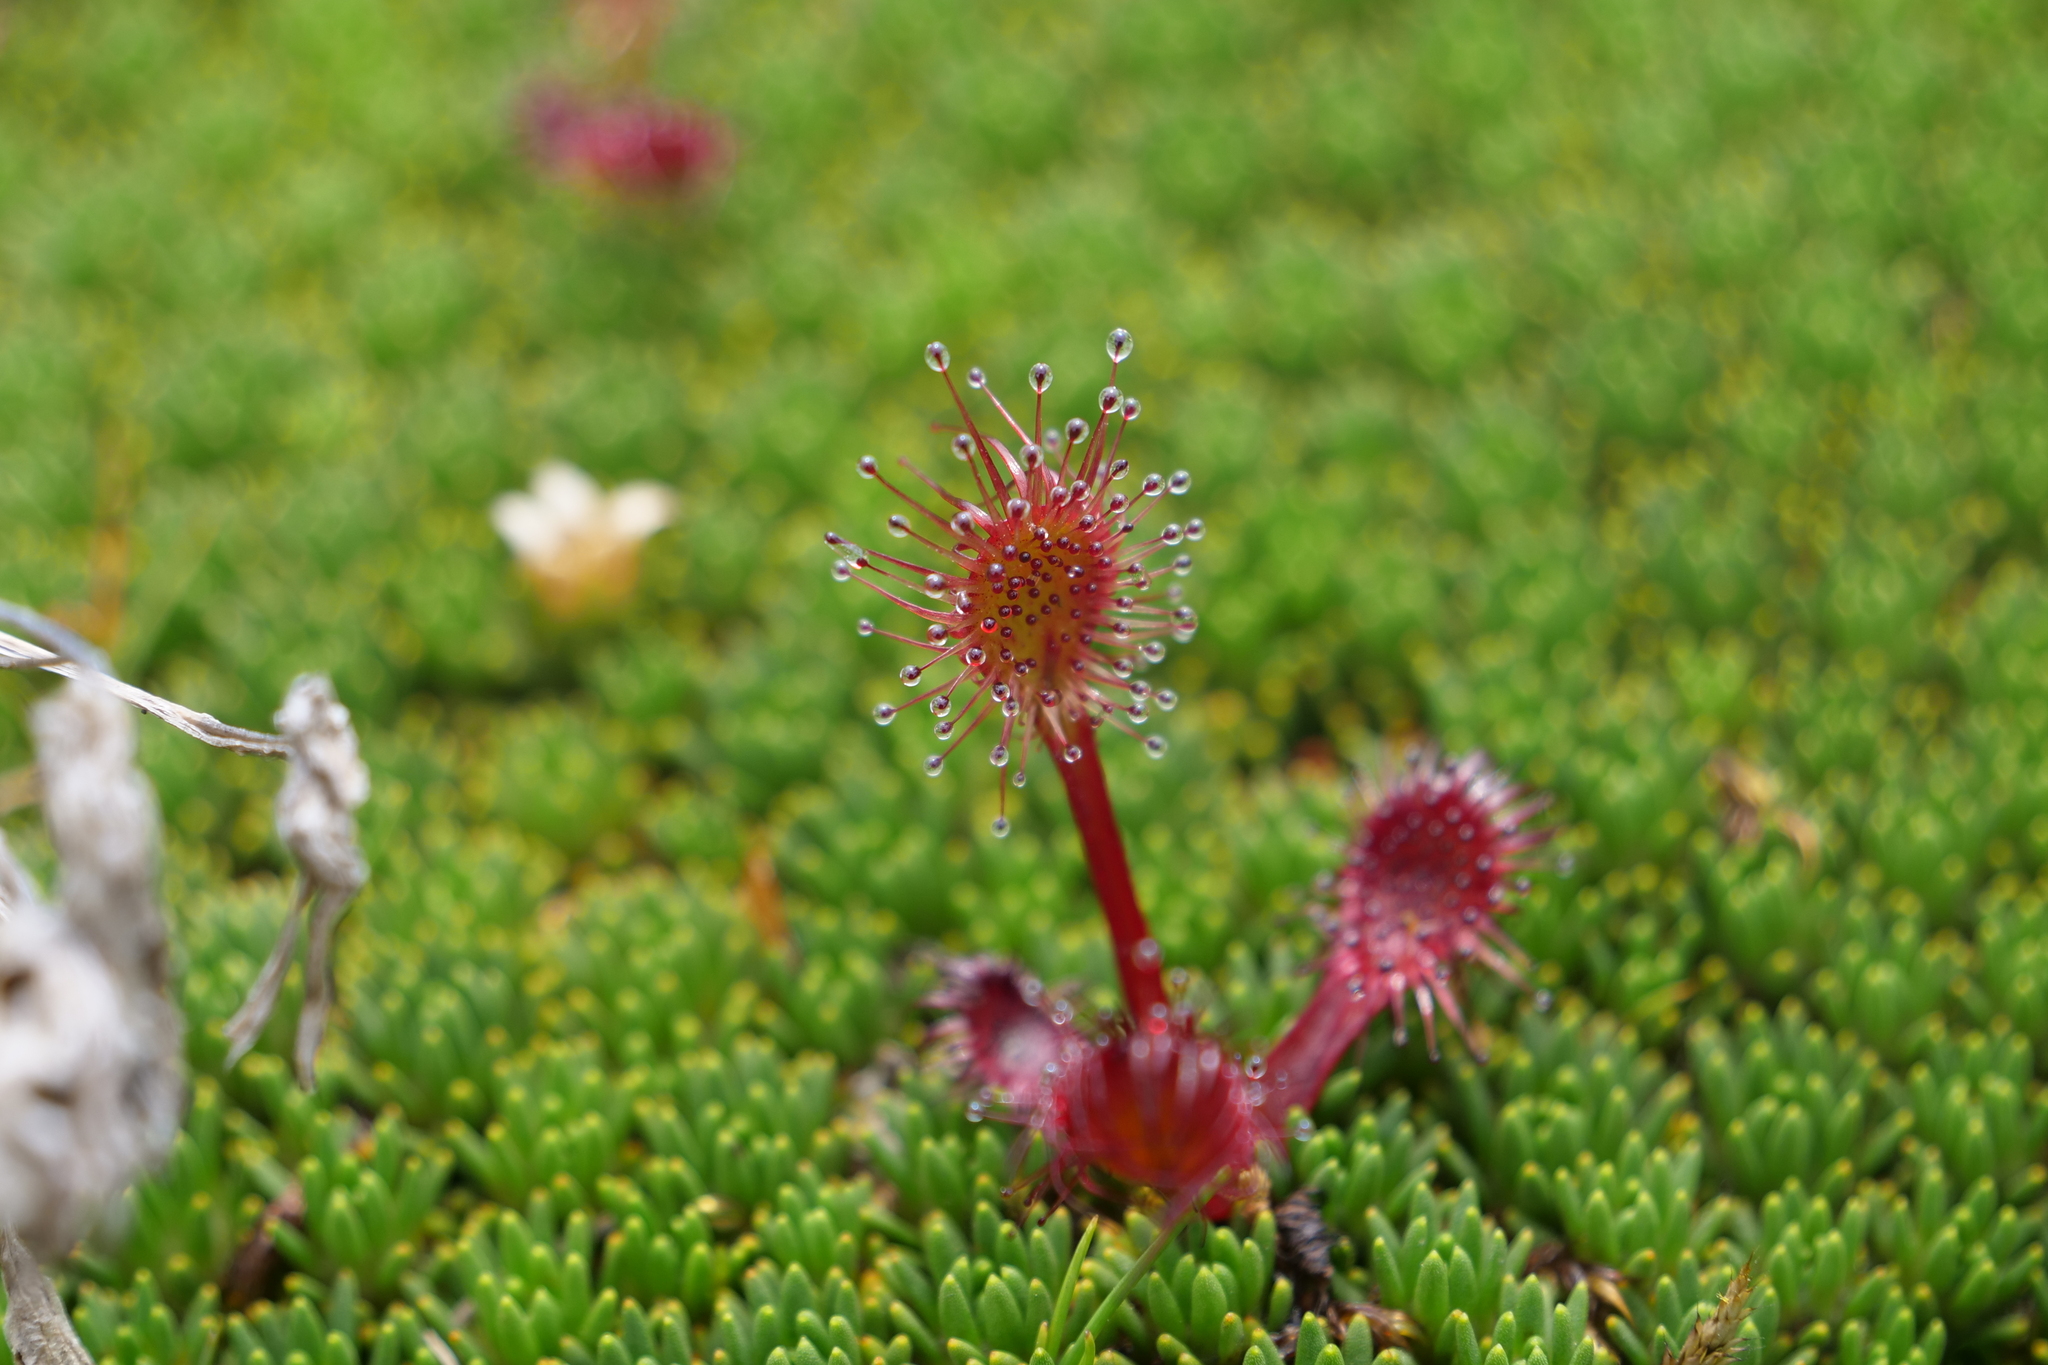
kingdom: Plantae
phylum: Tracheophyta
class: Magnoliopsida
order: Caryophyllales
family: Droseraceae
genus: Drosera
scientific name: Drosera stenopetala
